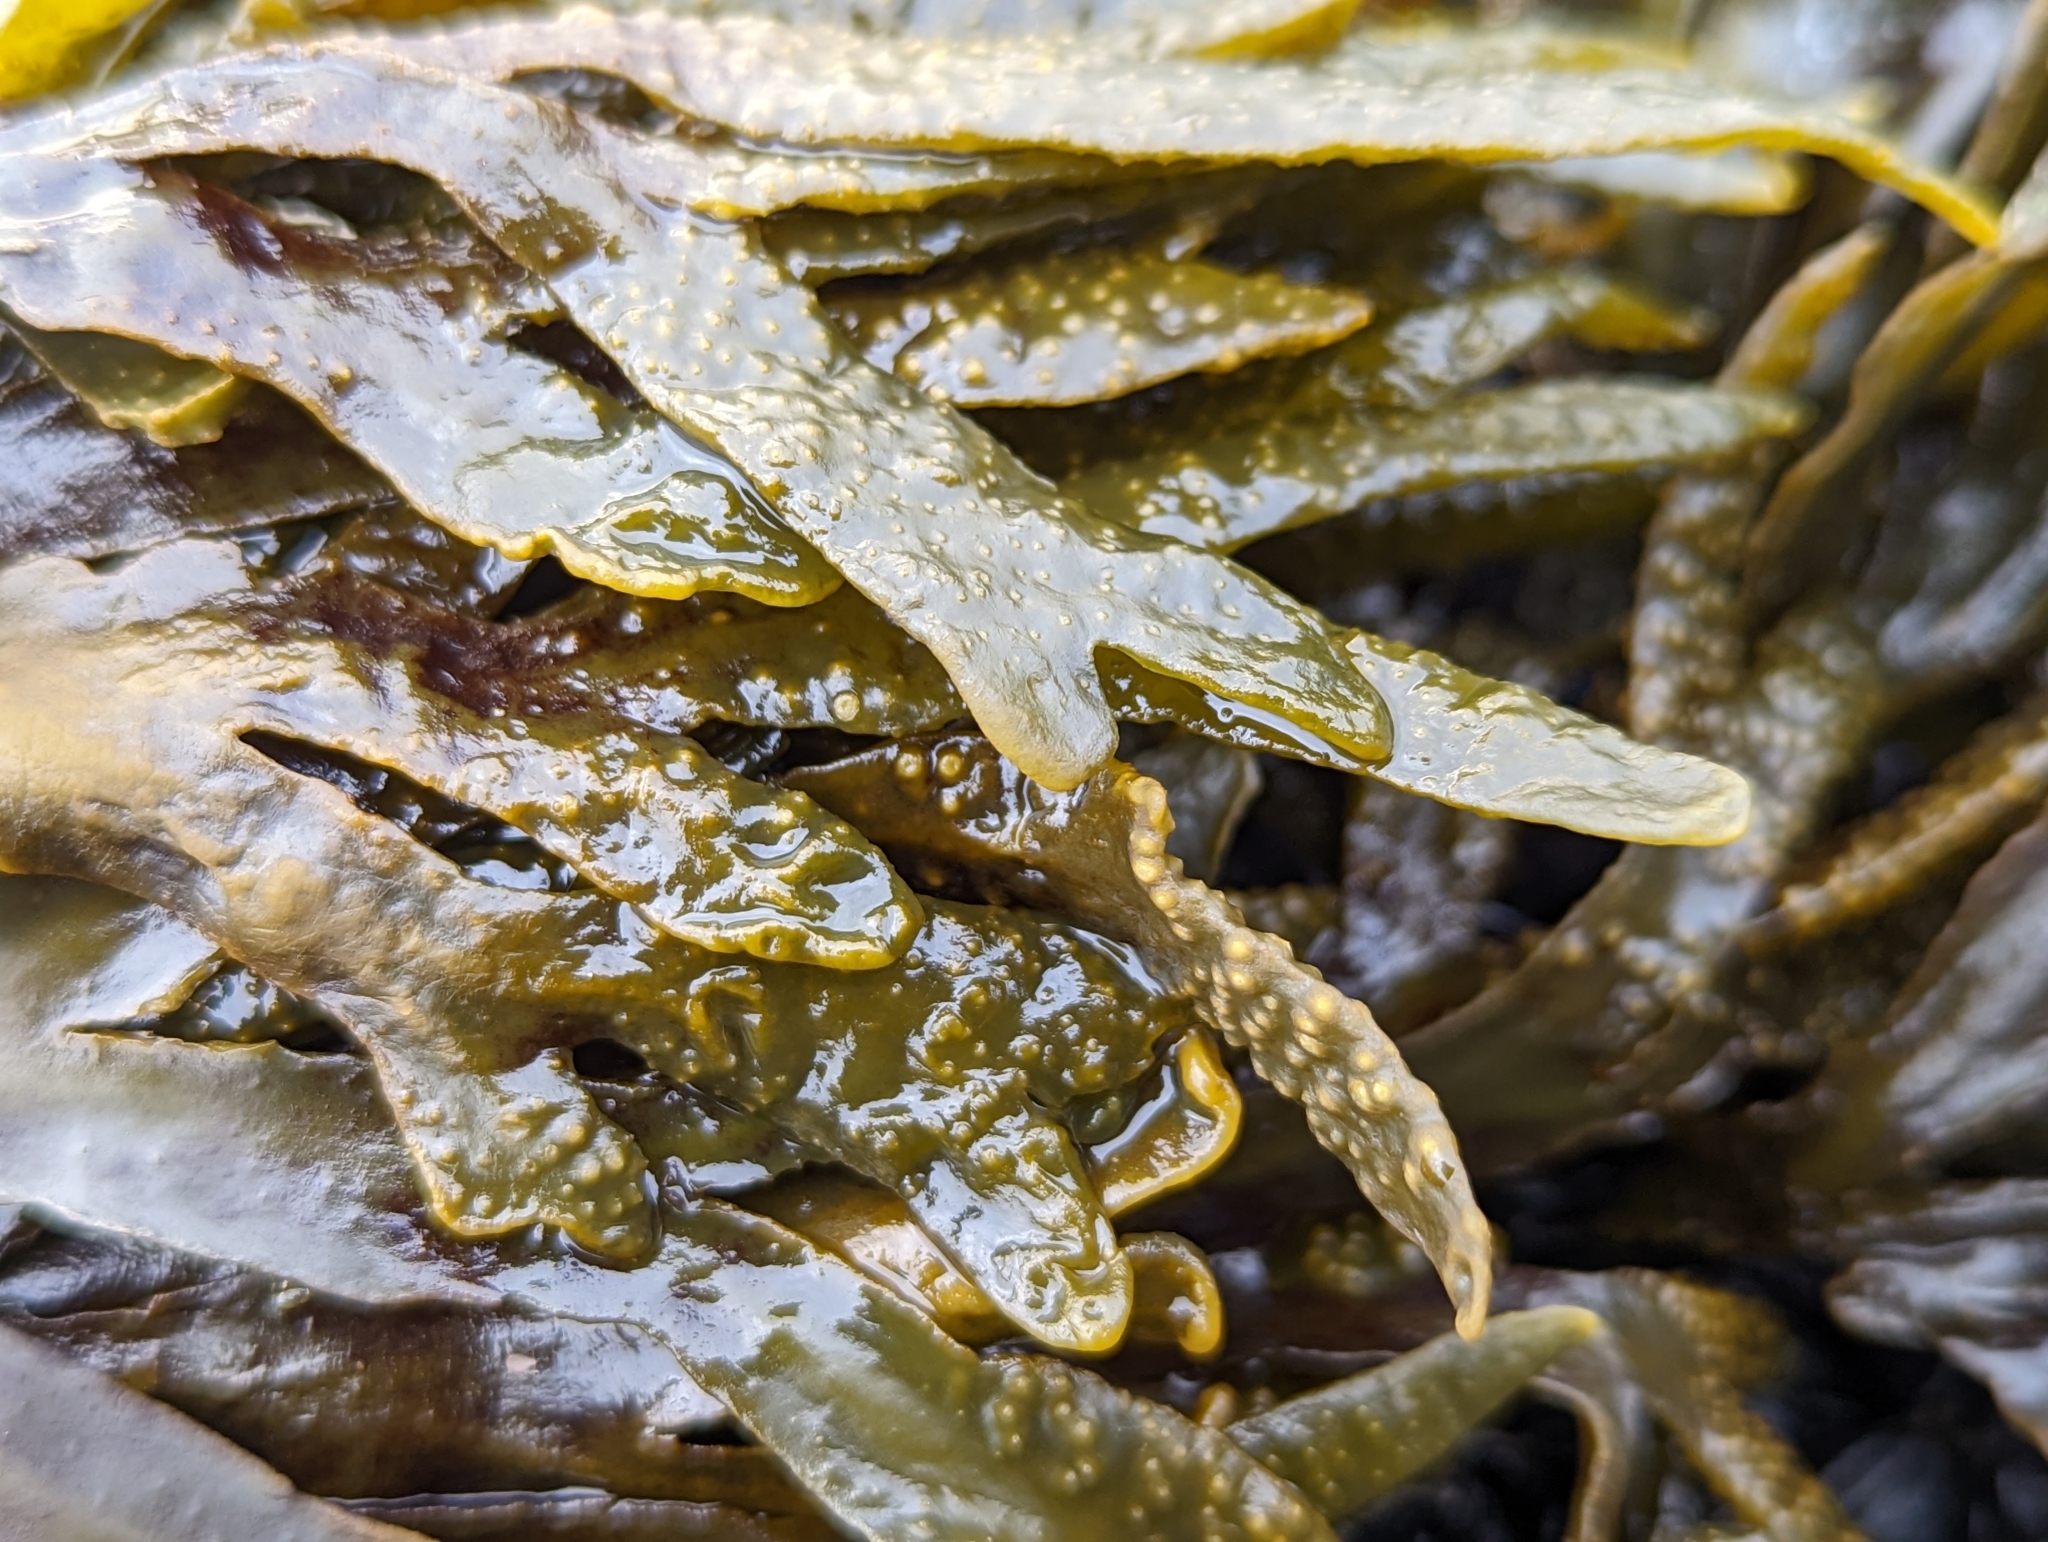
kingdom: Chromista
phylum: Ochrophyta
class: Phaeophyceae
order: Fucales
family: Fucaceae
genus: Fucus
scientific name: Fucus distichus
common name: Rockweed
